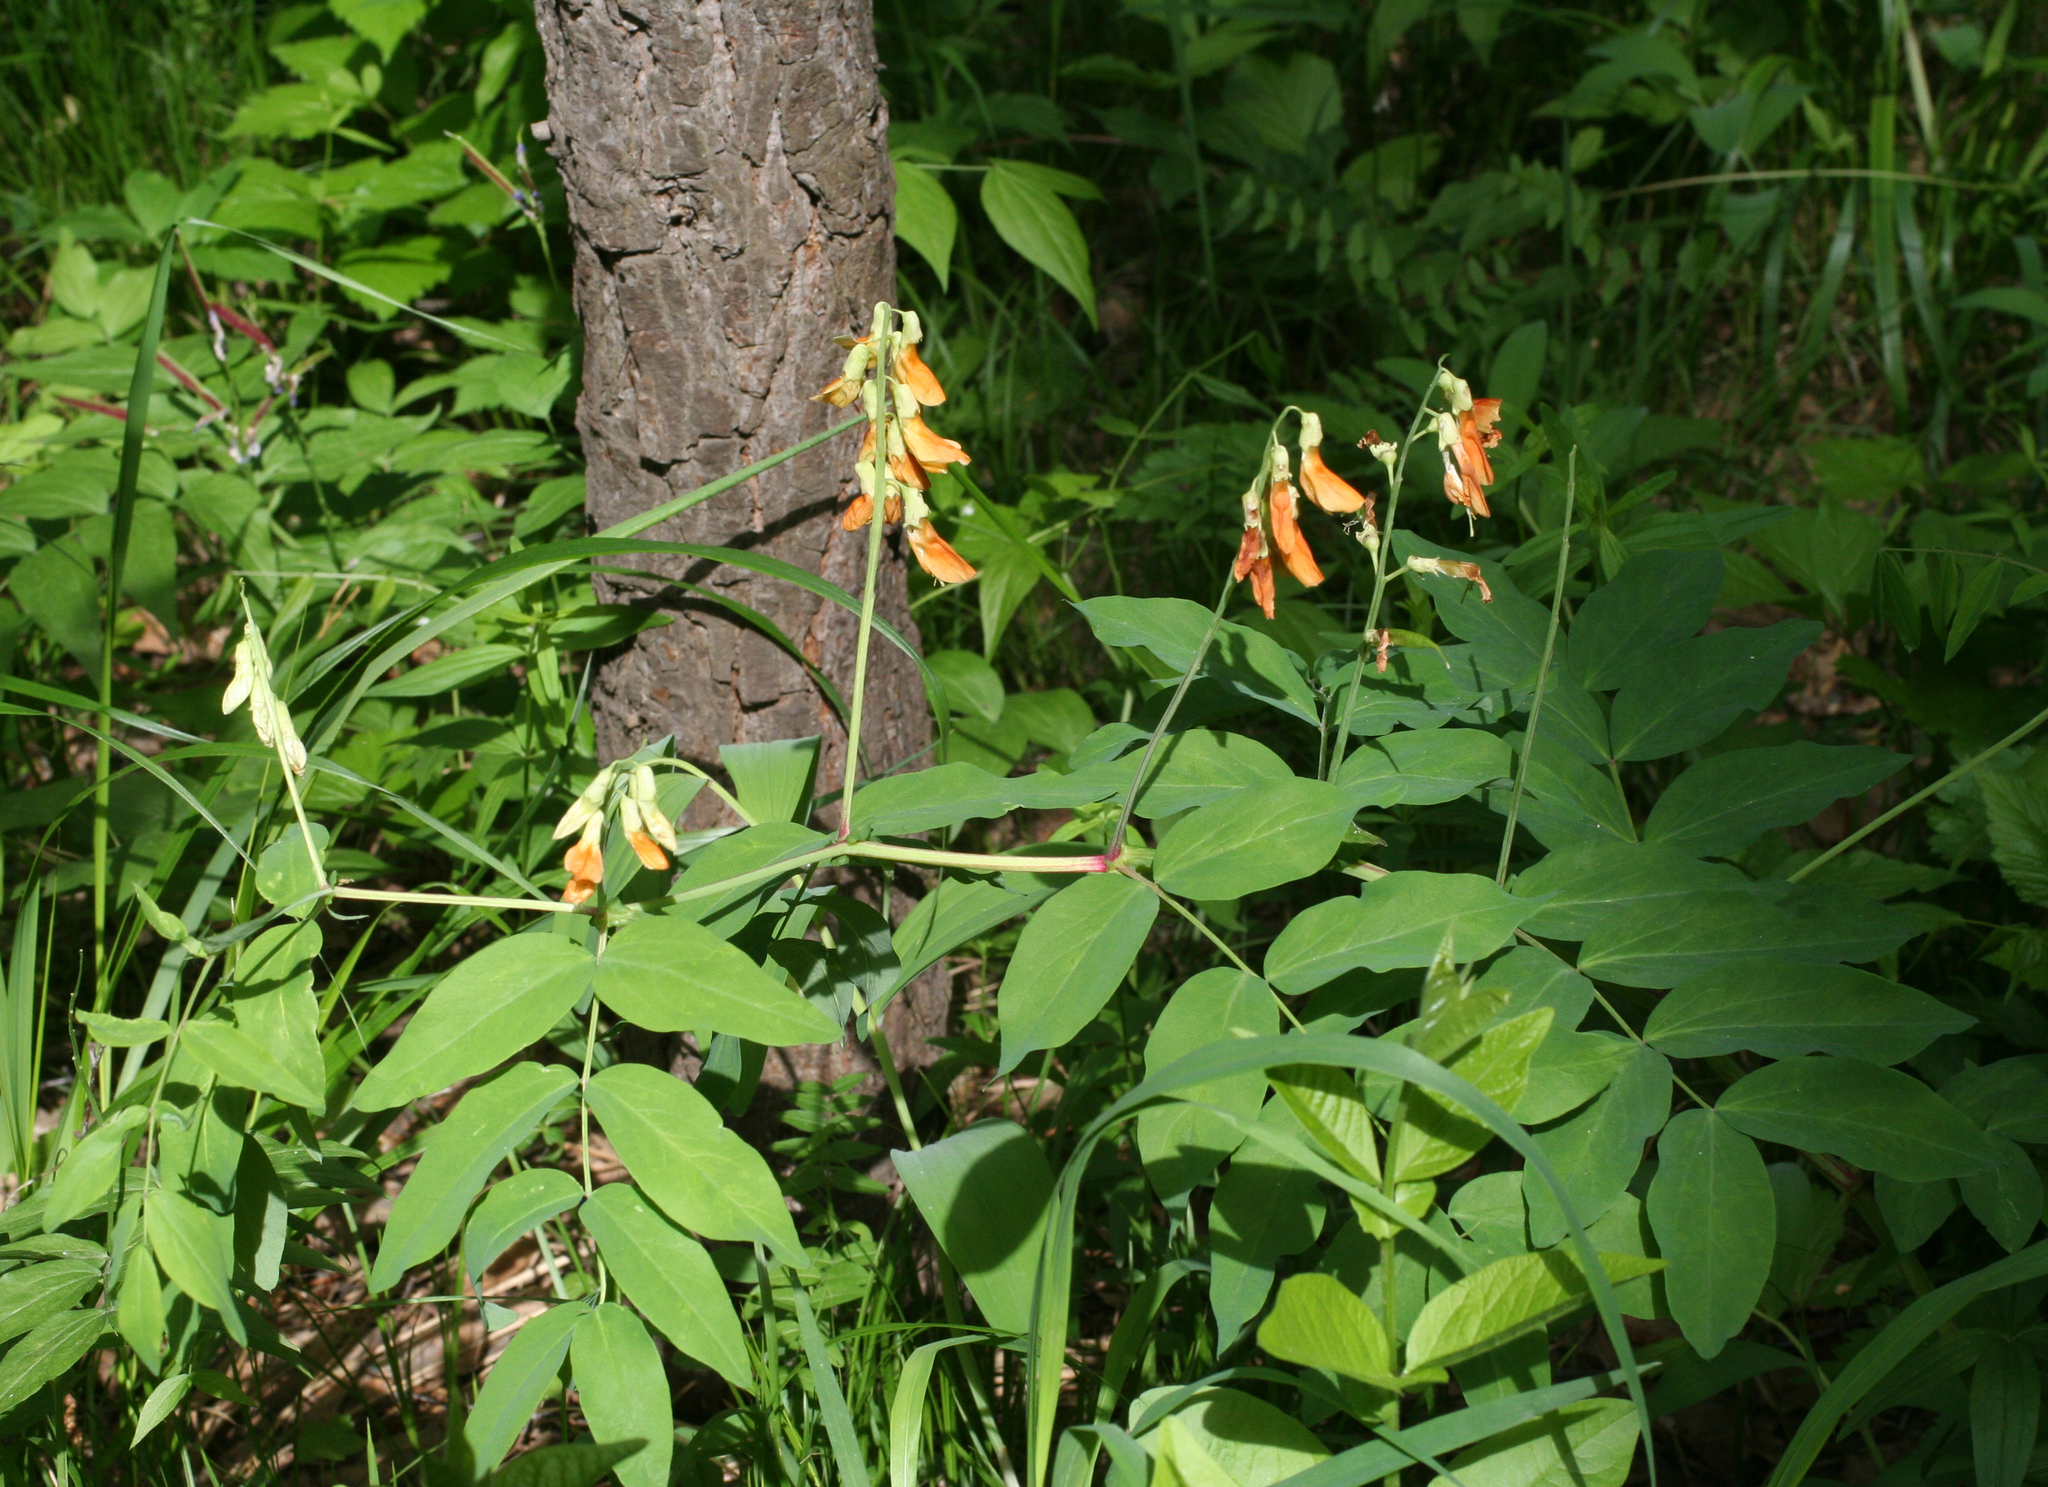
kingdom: Plantae
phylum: Tracheophyta
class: Magnoliopsida
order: Fabales
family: Fabaceae
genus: Lathyrus
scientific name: Lathyrus gmelinii
